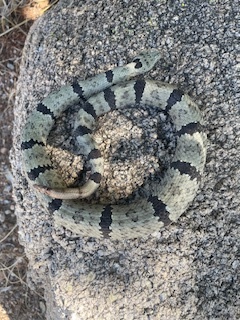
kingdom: Animalia
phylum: Chordata
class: Squamata
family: Viperidae
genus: Crotalus
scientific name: Crotalus lepidus
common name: Rock rattlesnake
